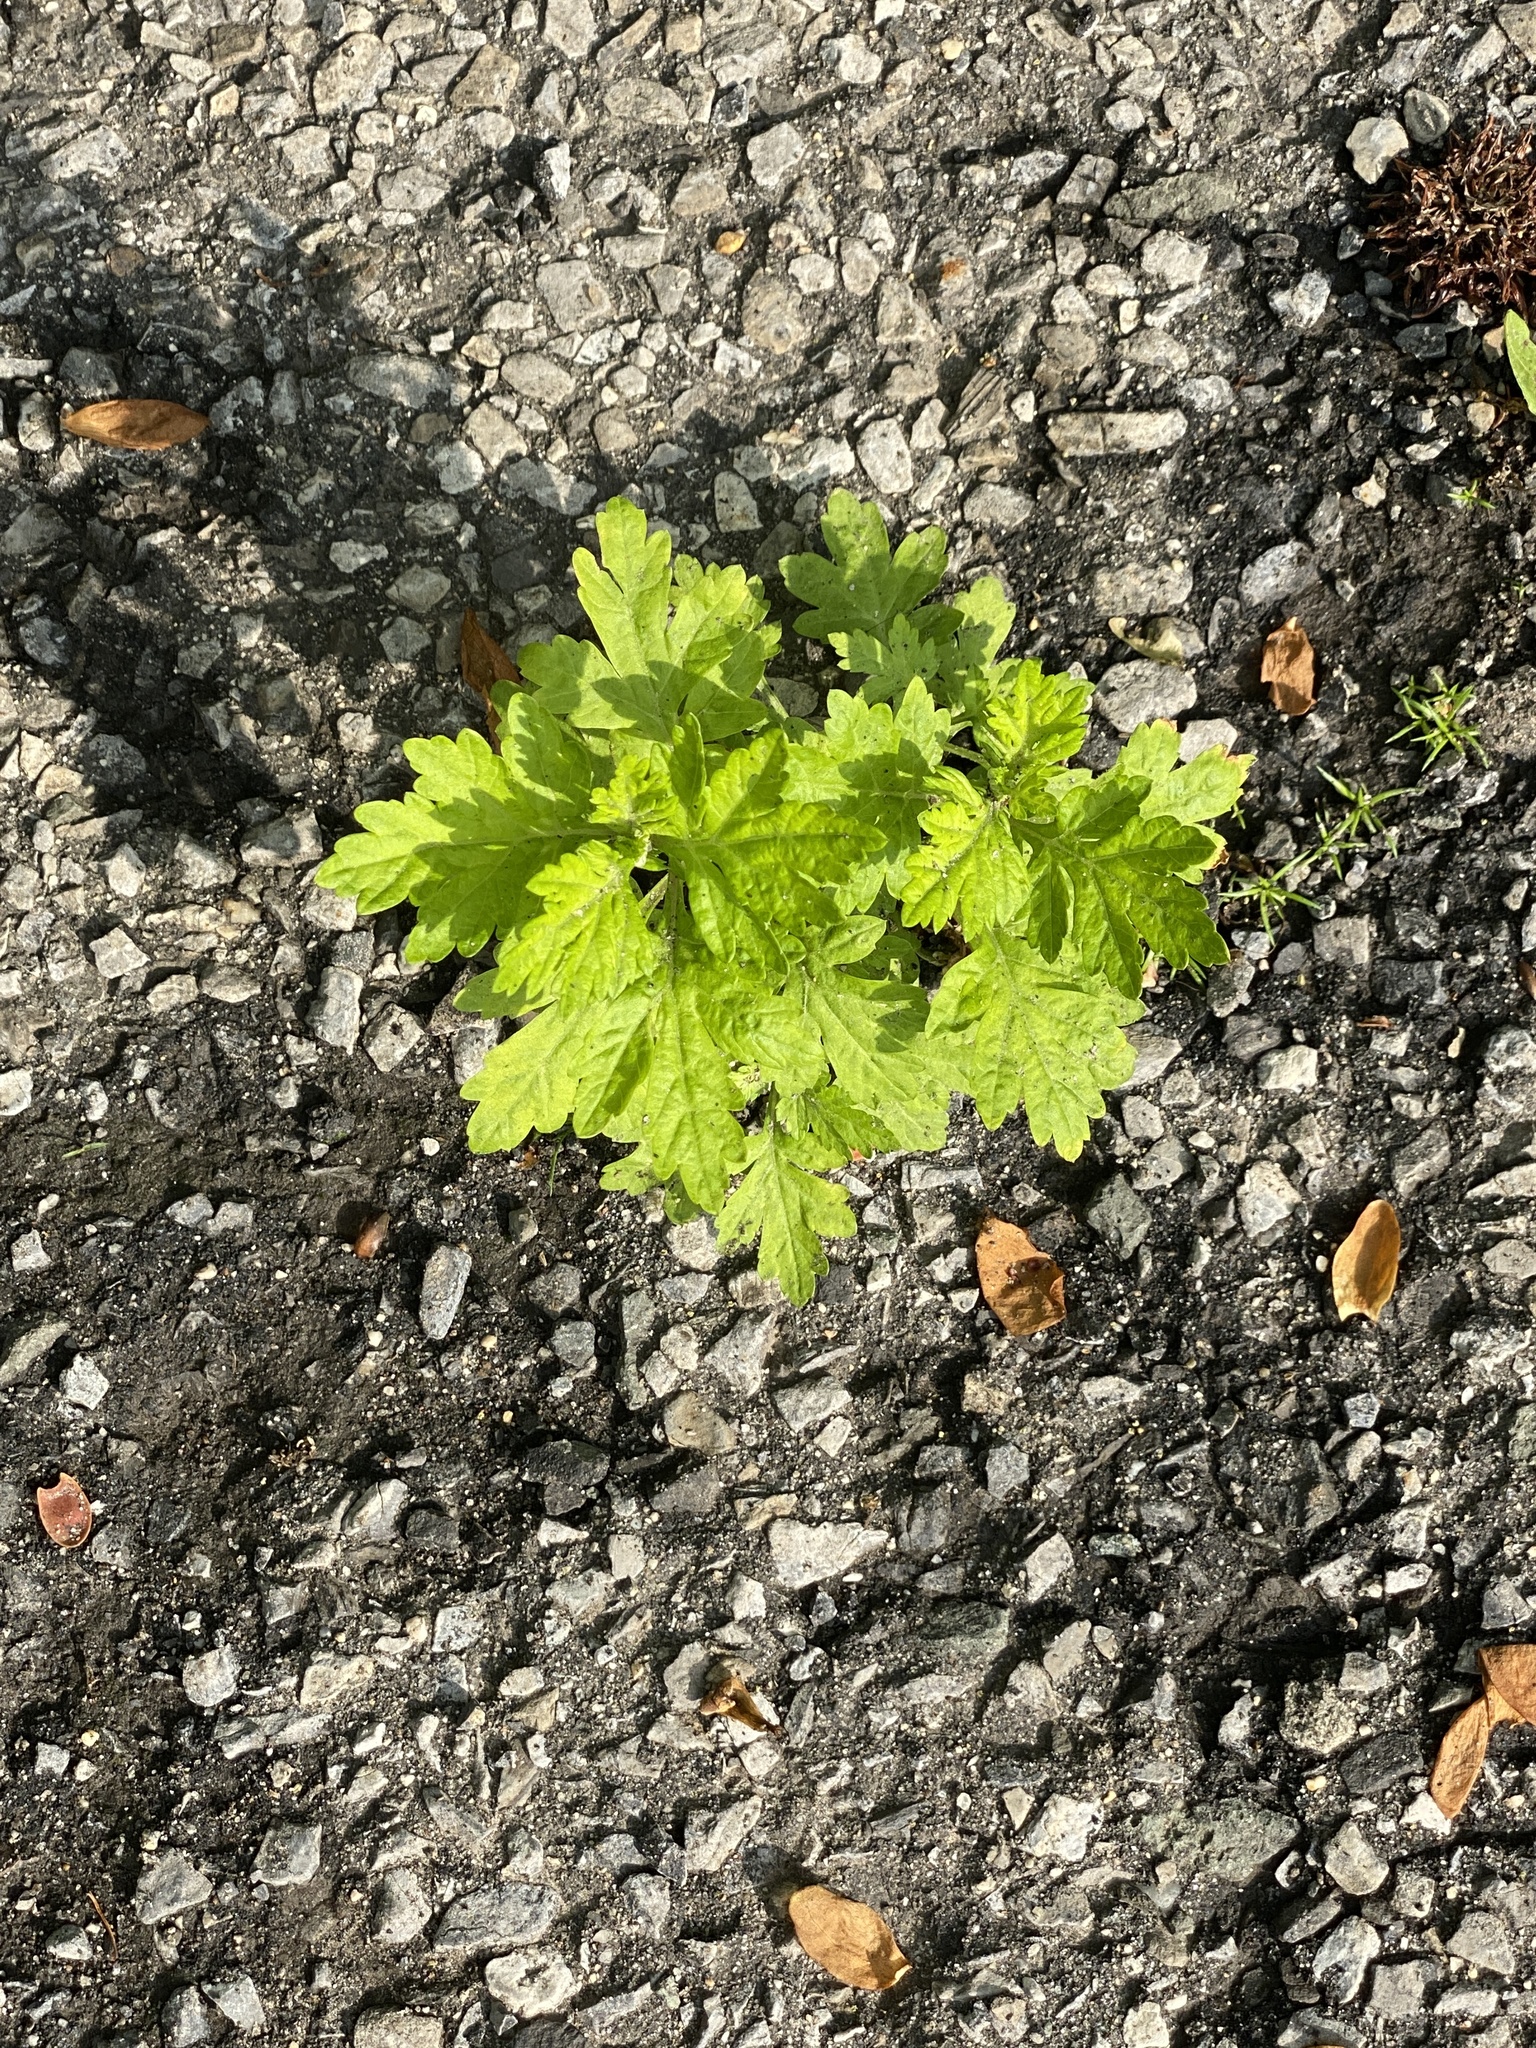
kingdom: Plantae
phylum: Tracheophyta
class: Magnoliopsida
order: Asterales
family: Asteraceae
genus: Artemisia
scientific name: Artemisia vulgaris
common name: Mugwort
